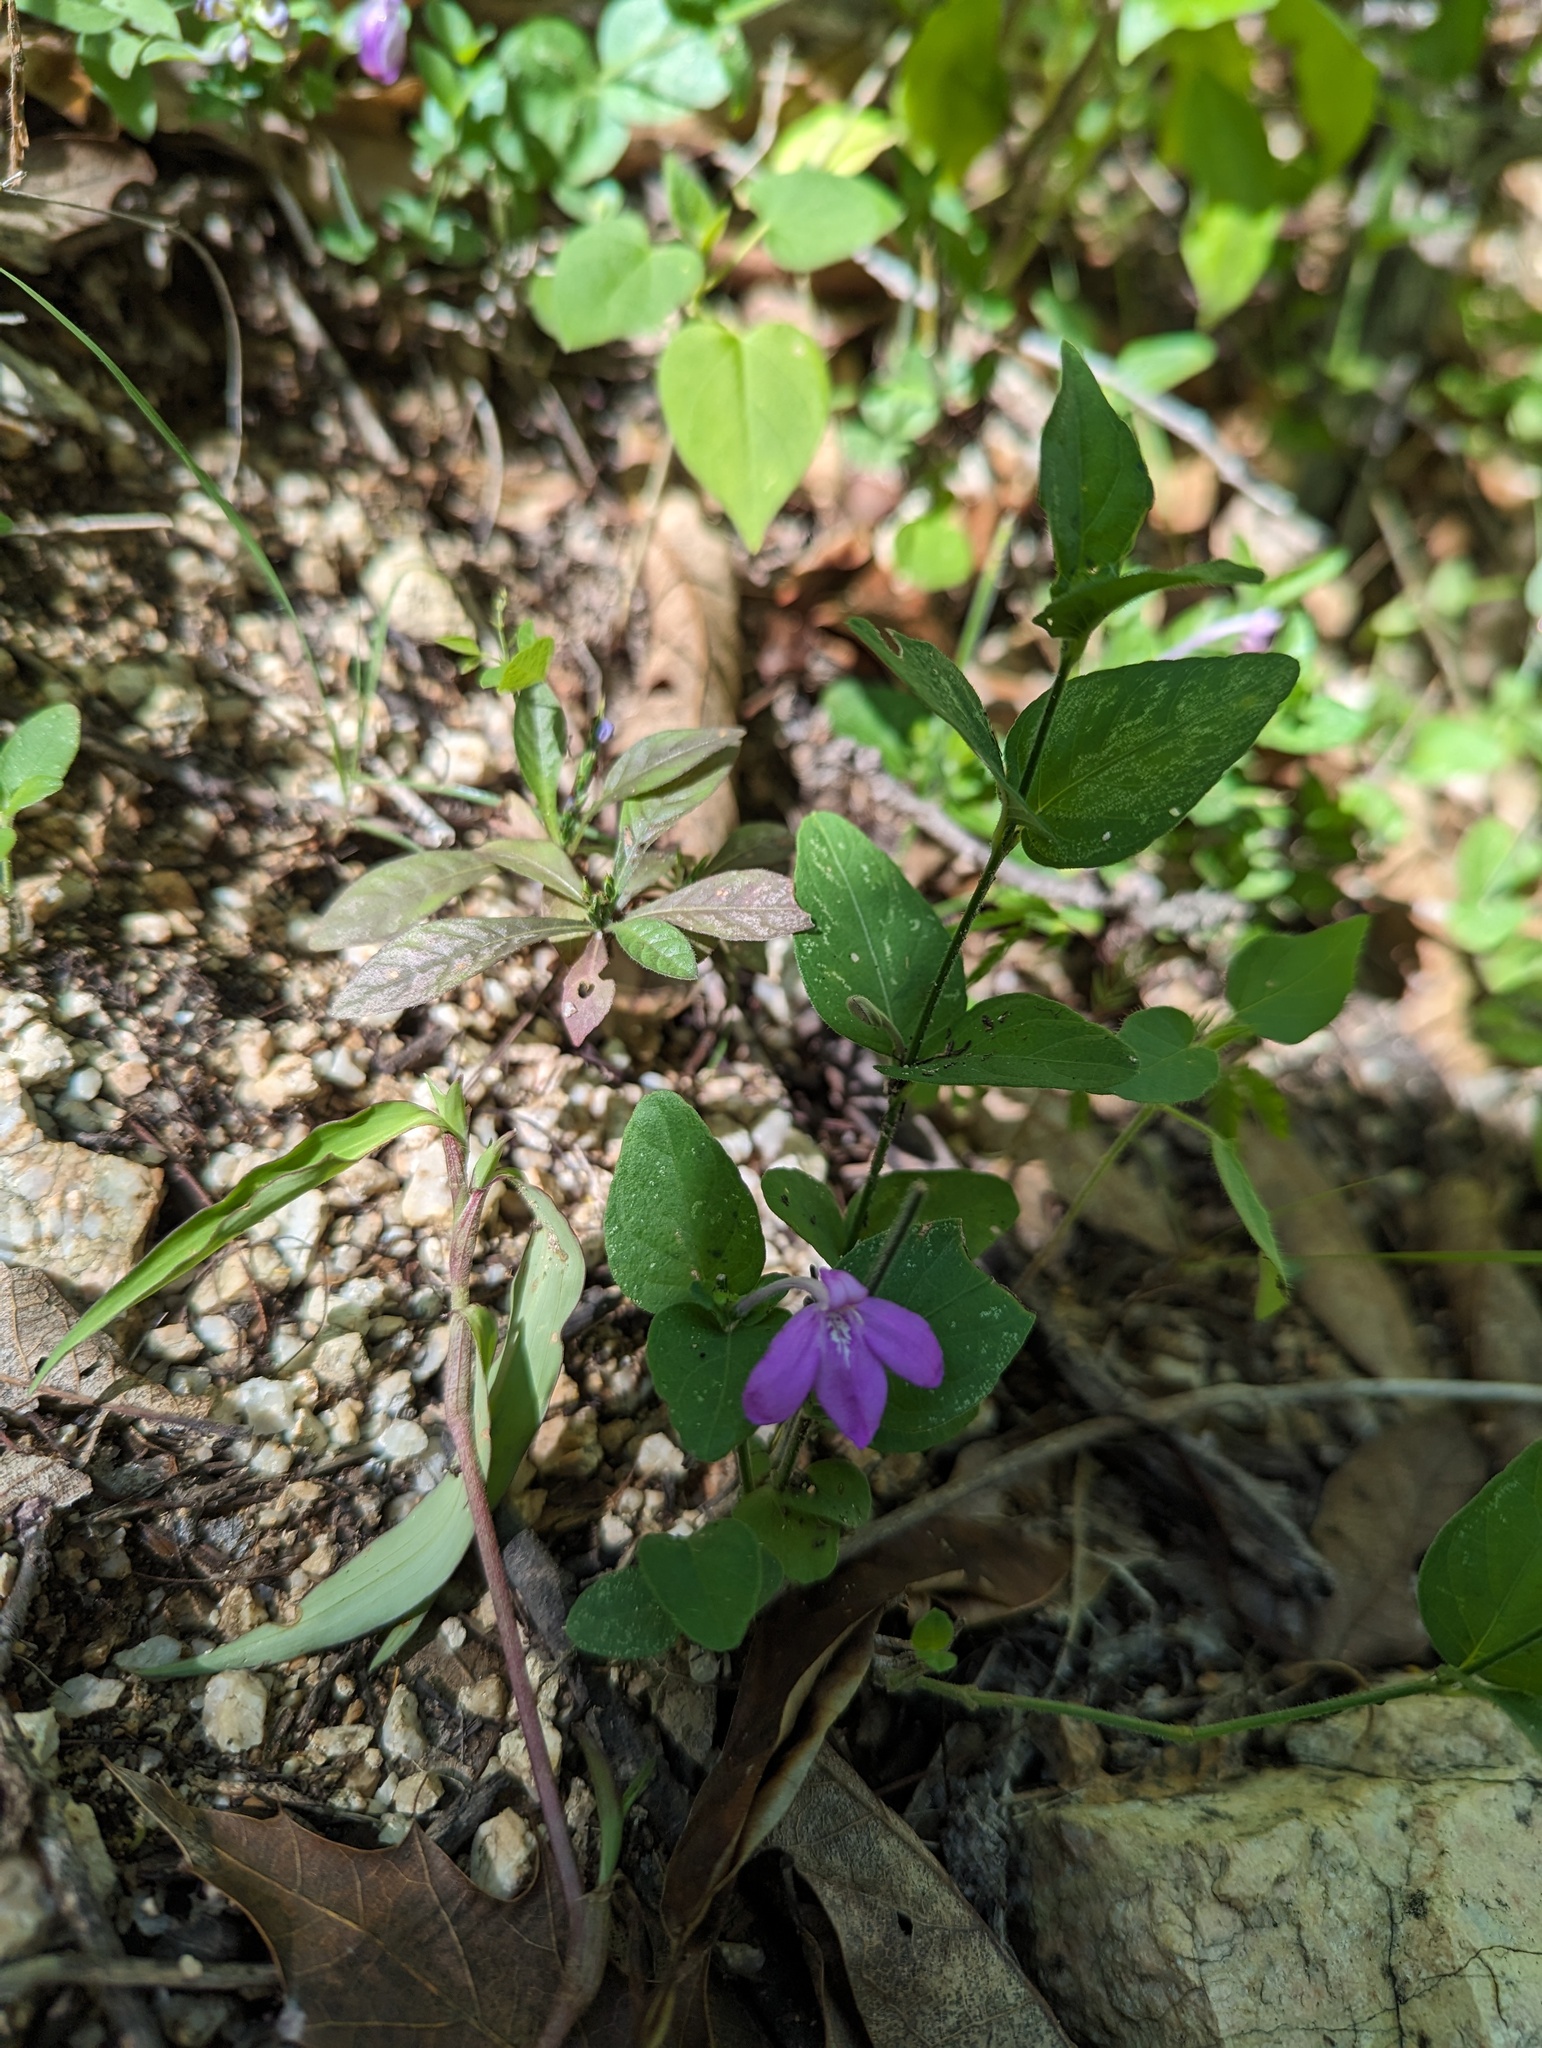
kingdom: Plantae
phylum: Tracheophyta
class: Magnoliopsida
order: Lamiales
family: Acanthaceae
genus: Dianthera
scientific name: Dianthera incerta
